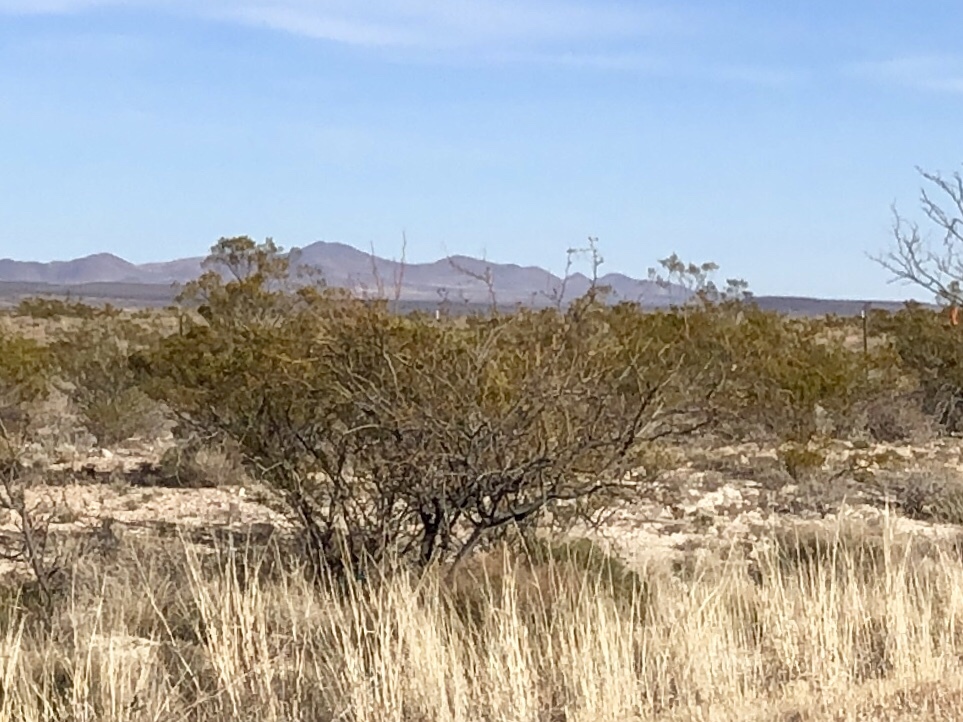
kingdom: Plantae
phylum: Tracheophyta
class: Magnoliopsida
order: Zygophyllales
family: Zygophyllaceae
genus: Larrea
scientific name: Larrea tridentata
